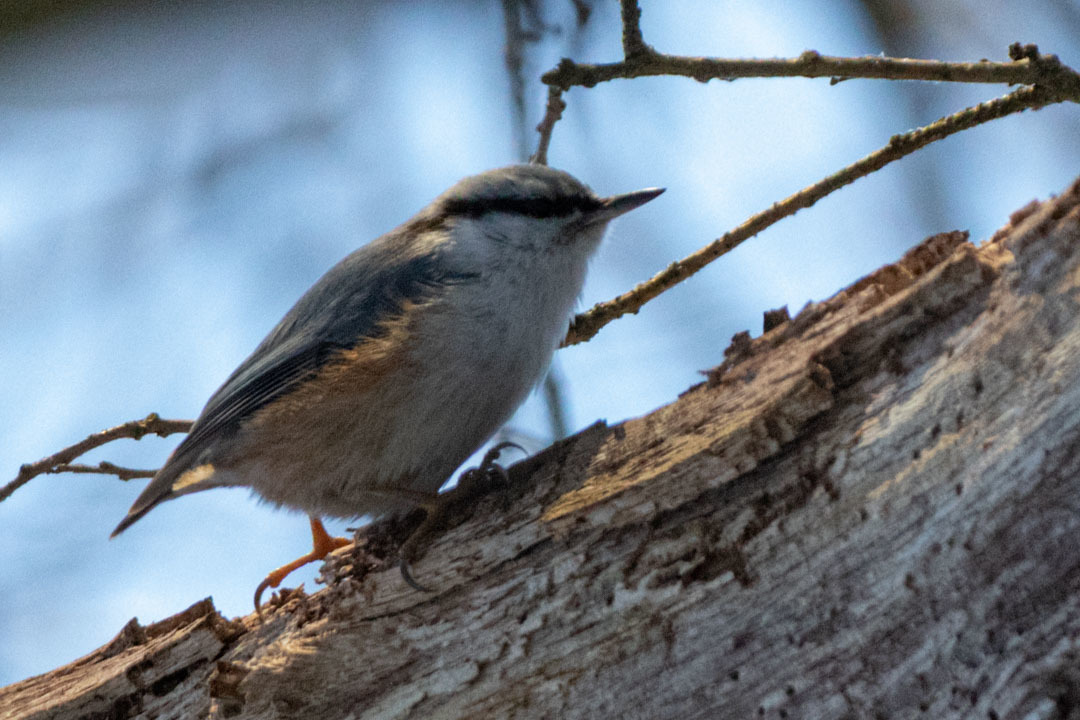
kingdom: Animalia
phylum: Chordata
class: Aves
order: Passeriformes
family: Sittidae
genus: Sitta
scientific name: Sitta europaea
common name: Eurasian nuthatch
